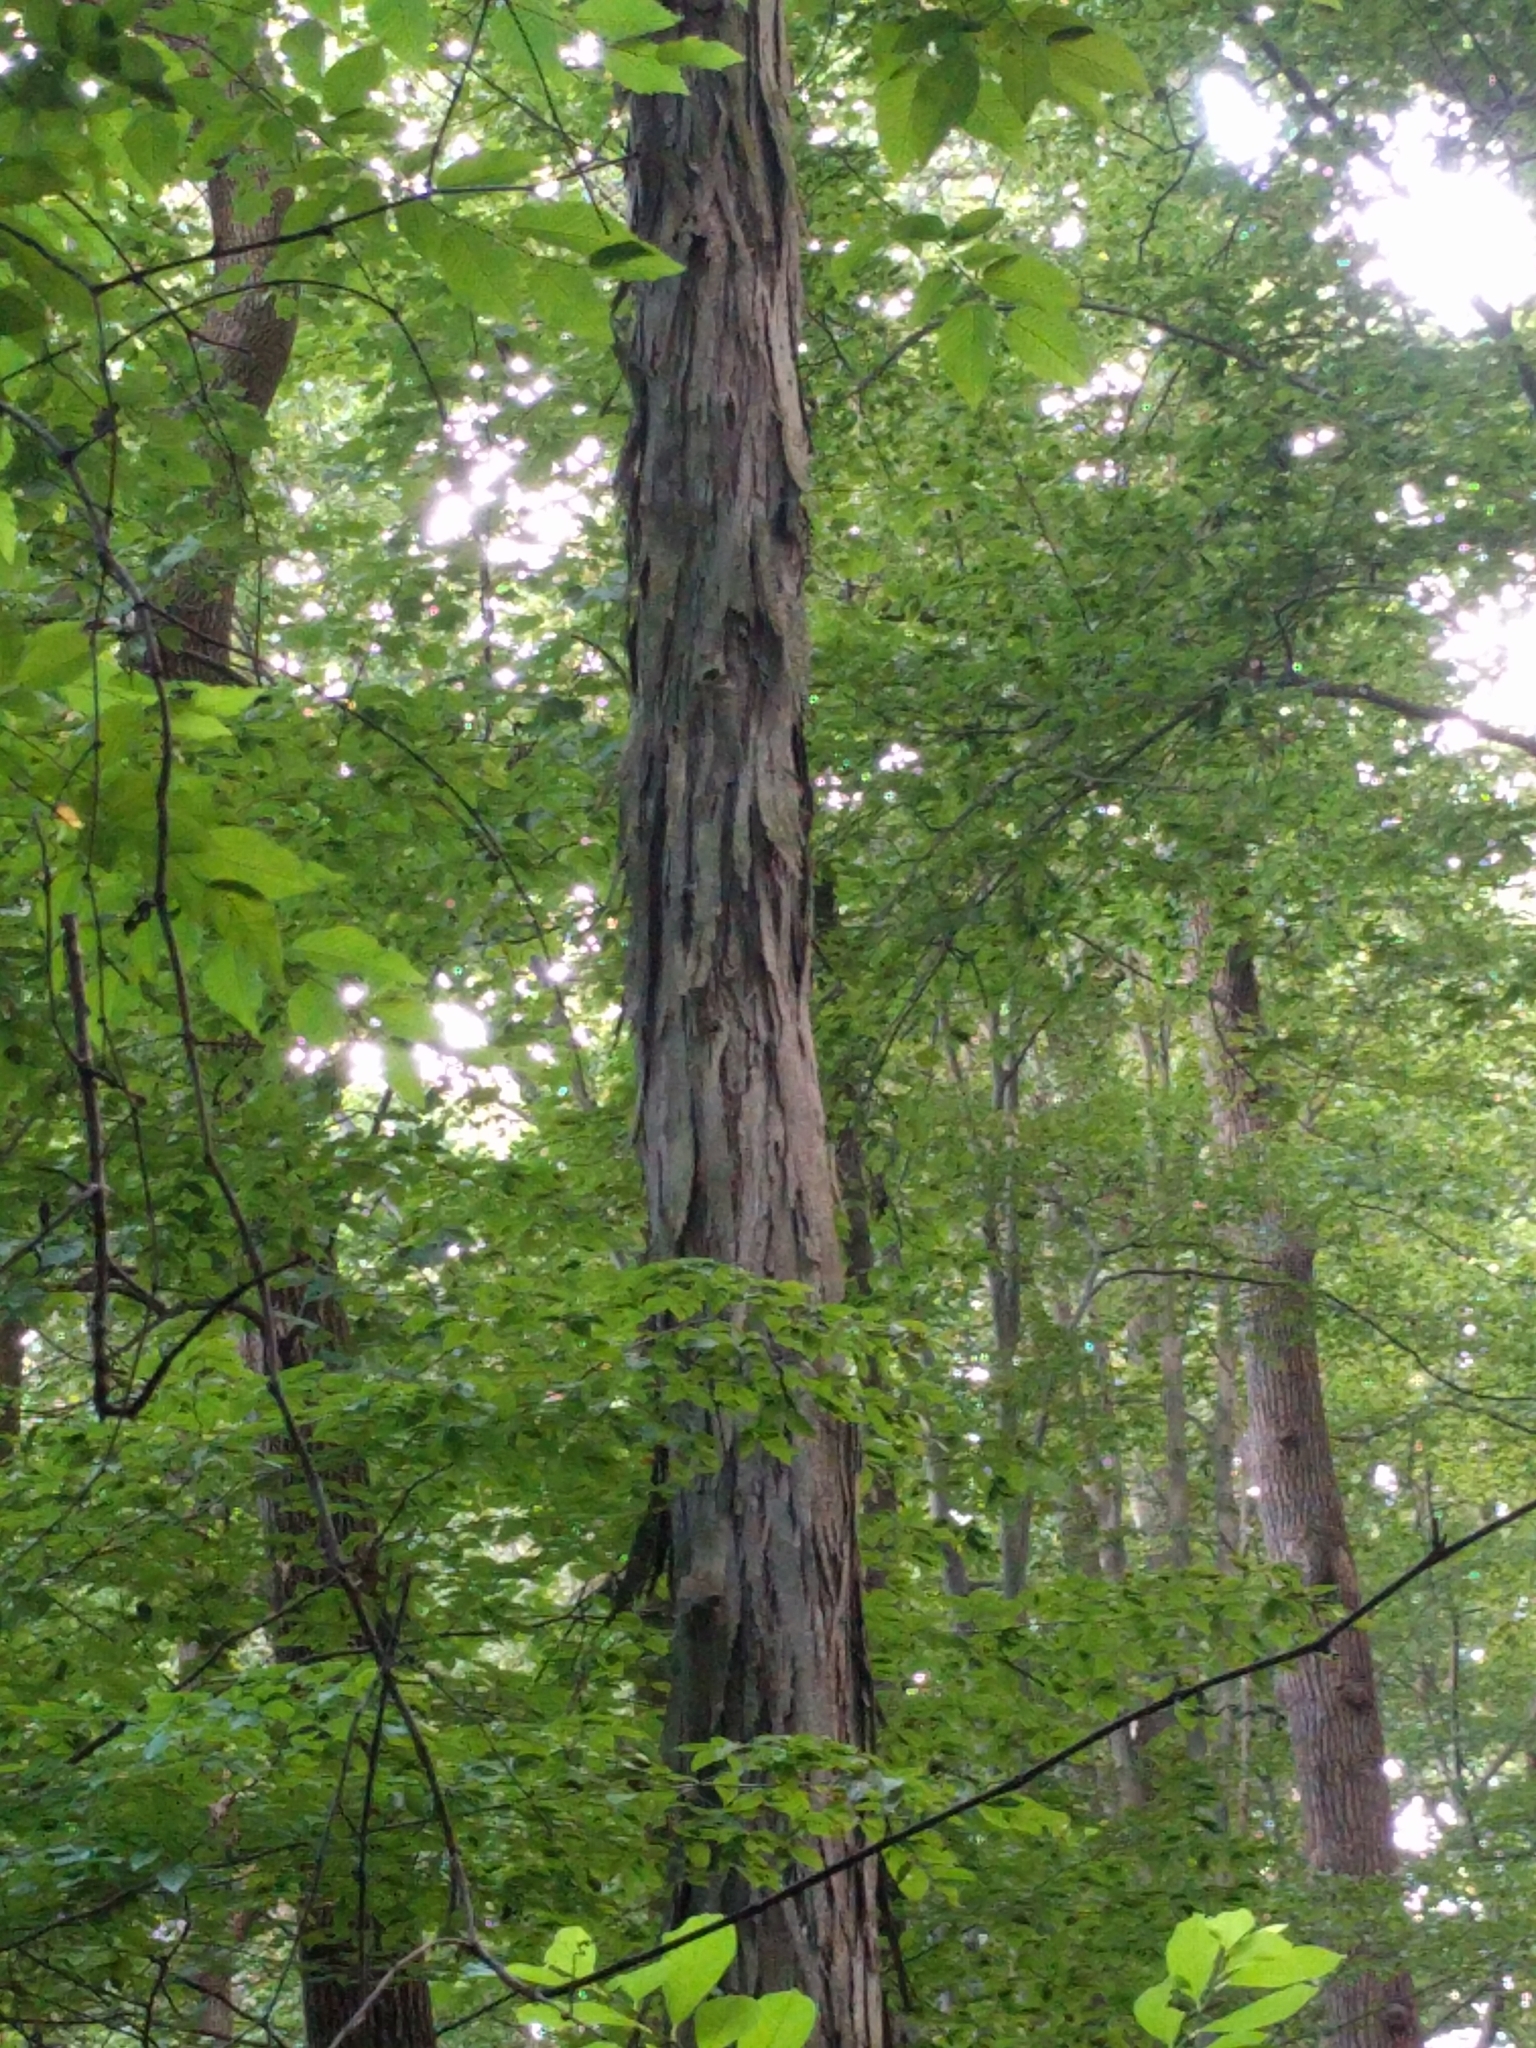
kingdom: Plantae
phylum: Tracheophyta
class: Magnoliopsida
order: Fagales
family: Juglandaceae
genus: Carya
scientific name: Carya ovata
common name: Shagbark hickory
